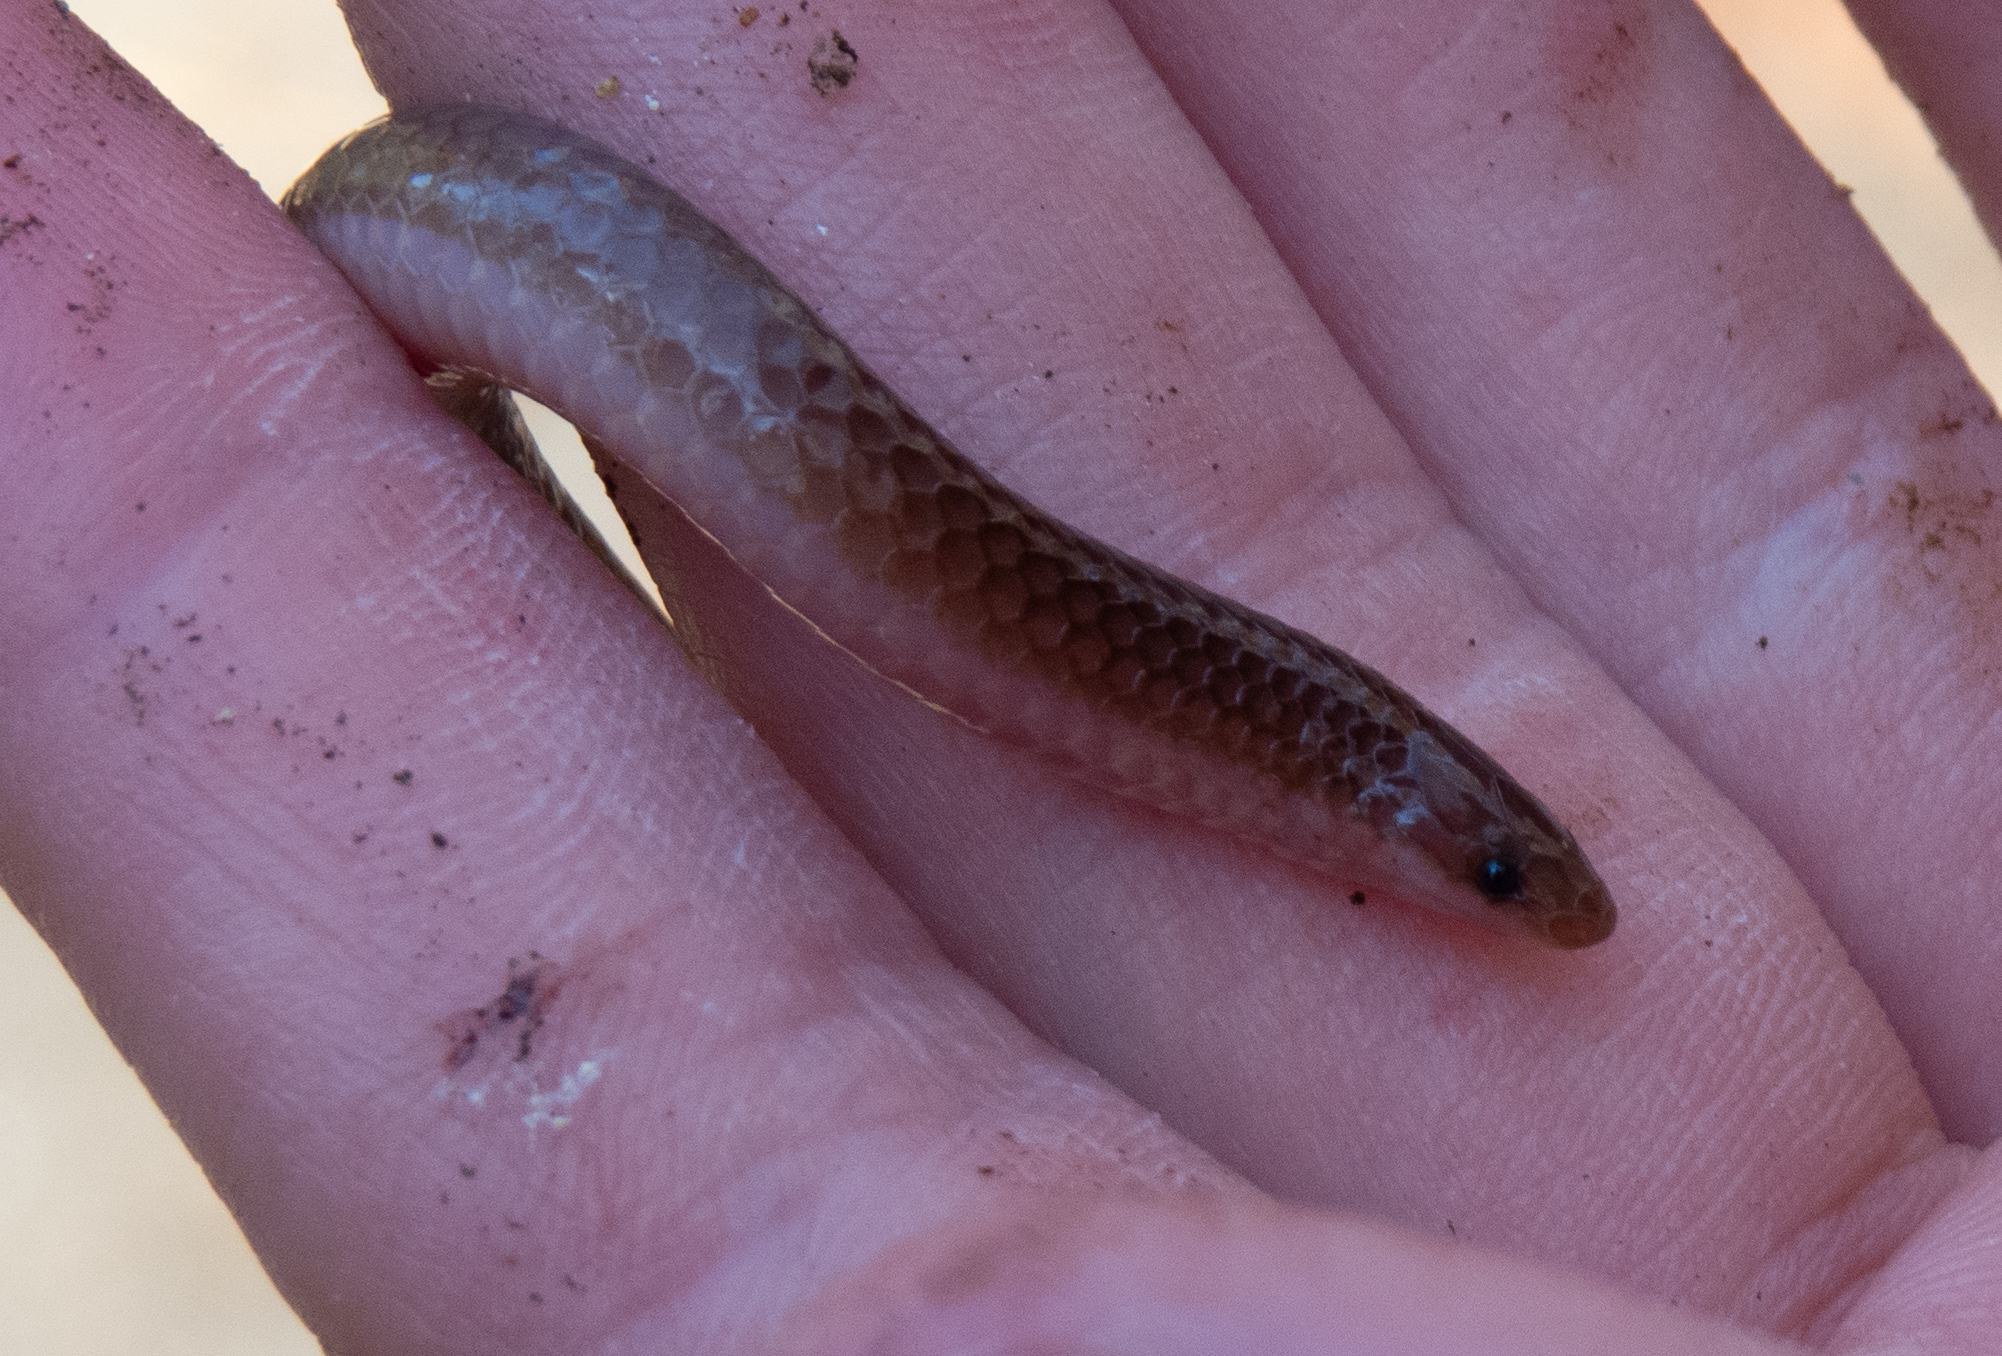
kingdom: Animalia
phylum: Chordata
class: Squamata
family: Colubridae
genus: Carphophis
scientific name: Carphophis amoenus
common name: Eastern worm snake
